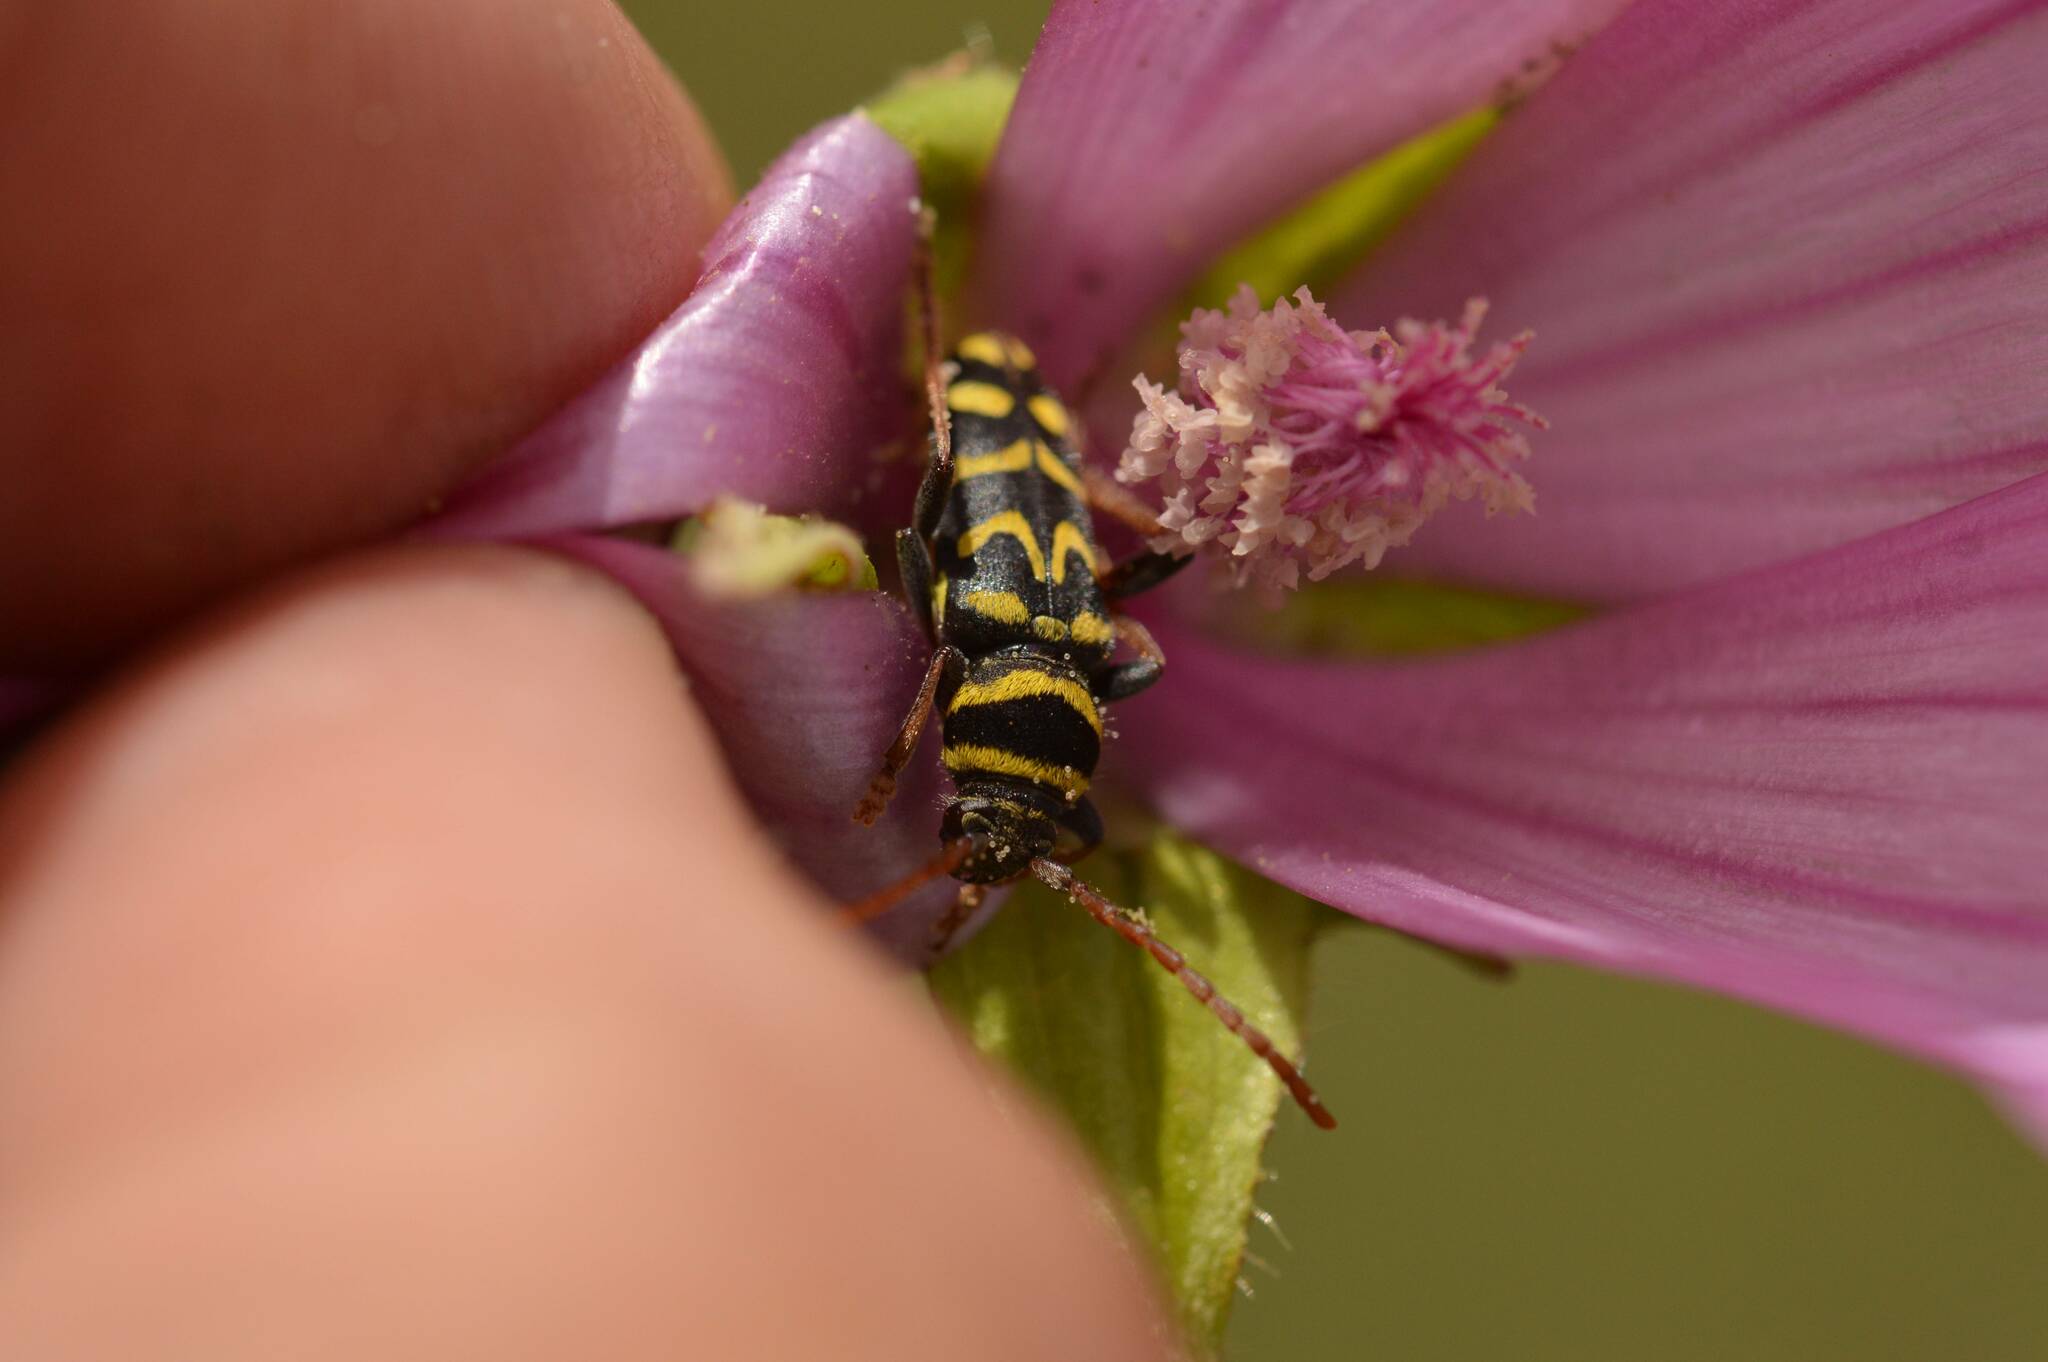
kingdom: Animalia
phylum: Arthropoda
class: Insecta
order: Coleoptera
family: Cerambycidae
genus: Neoplagionotus
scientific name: Neoplagionotus scalaris
